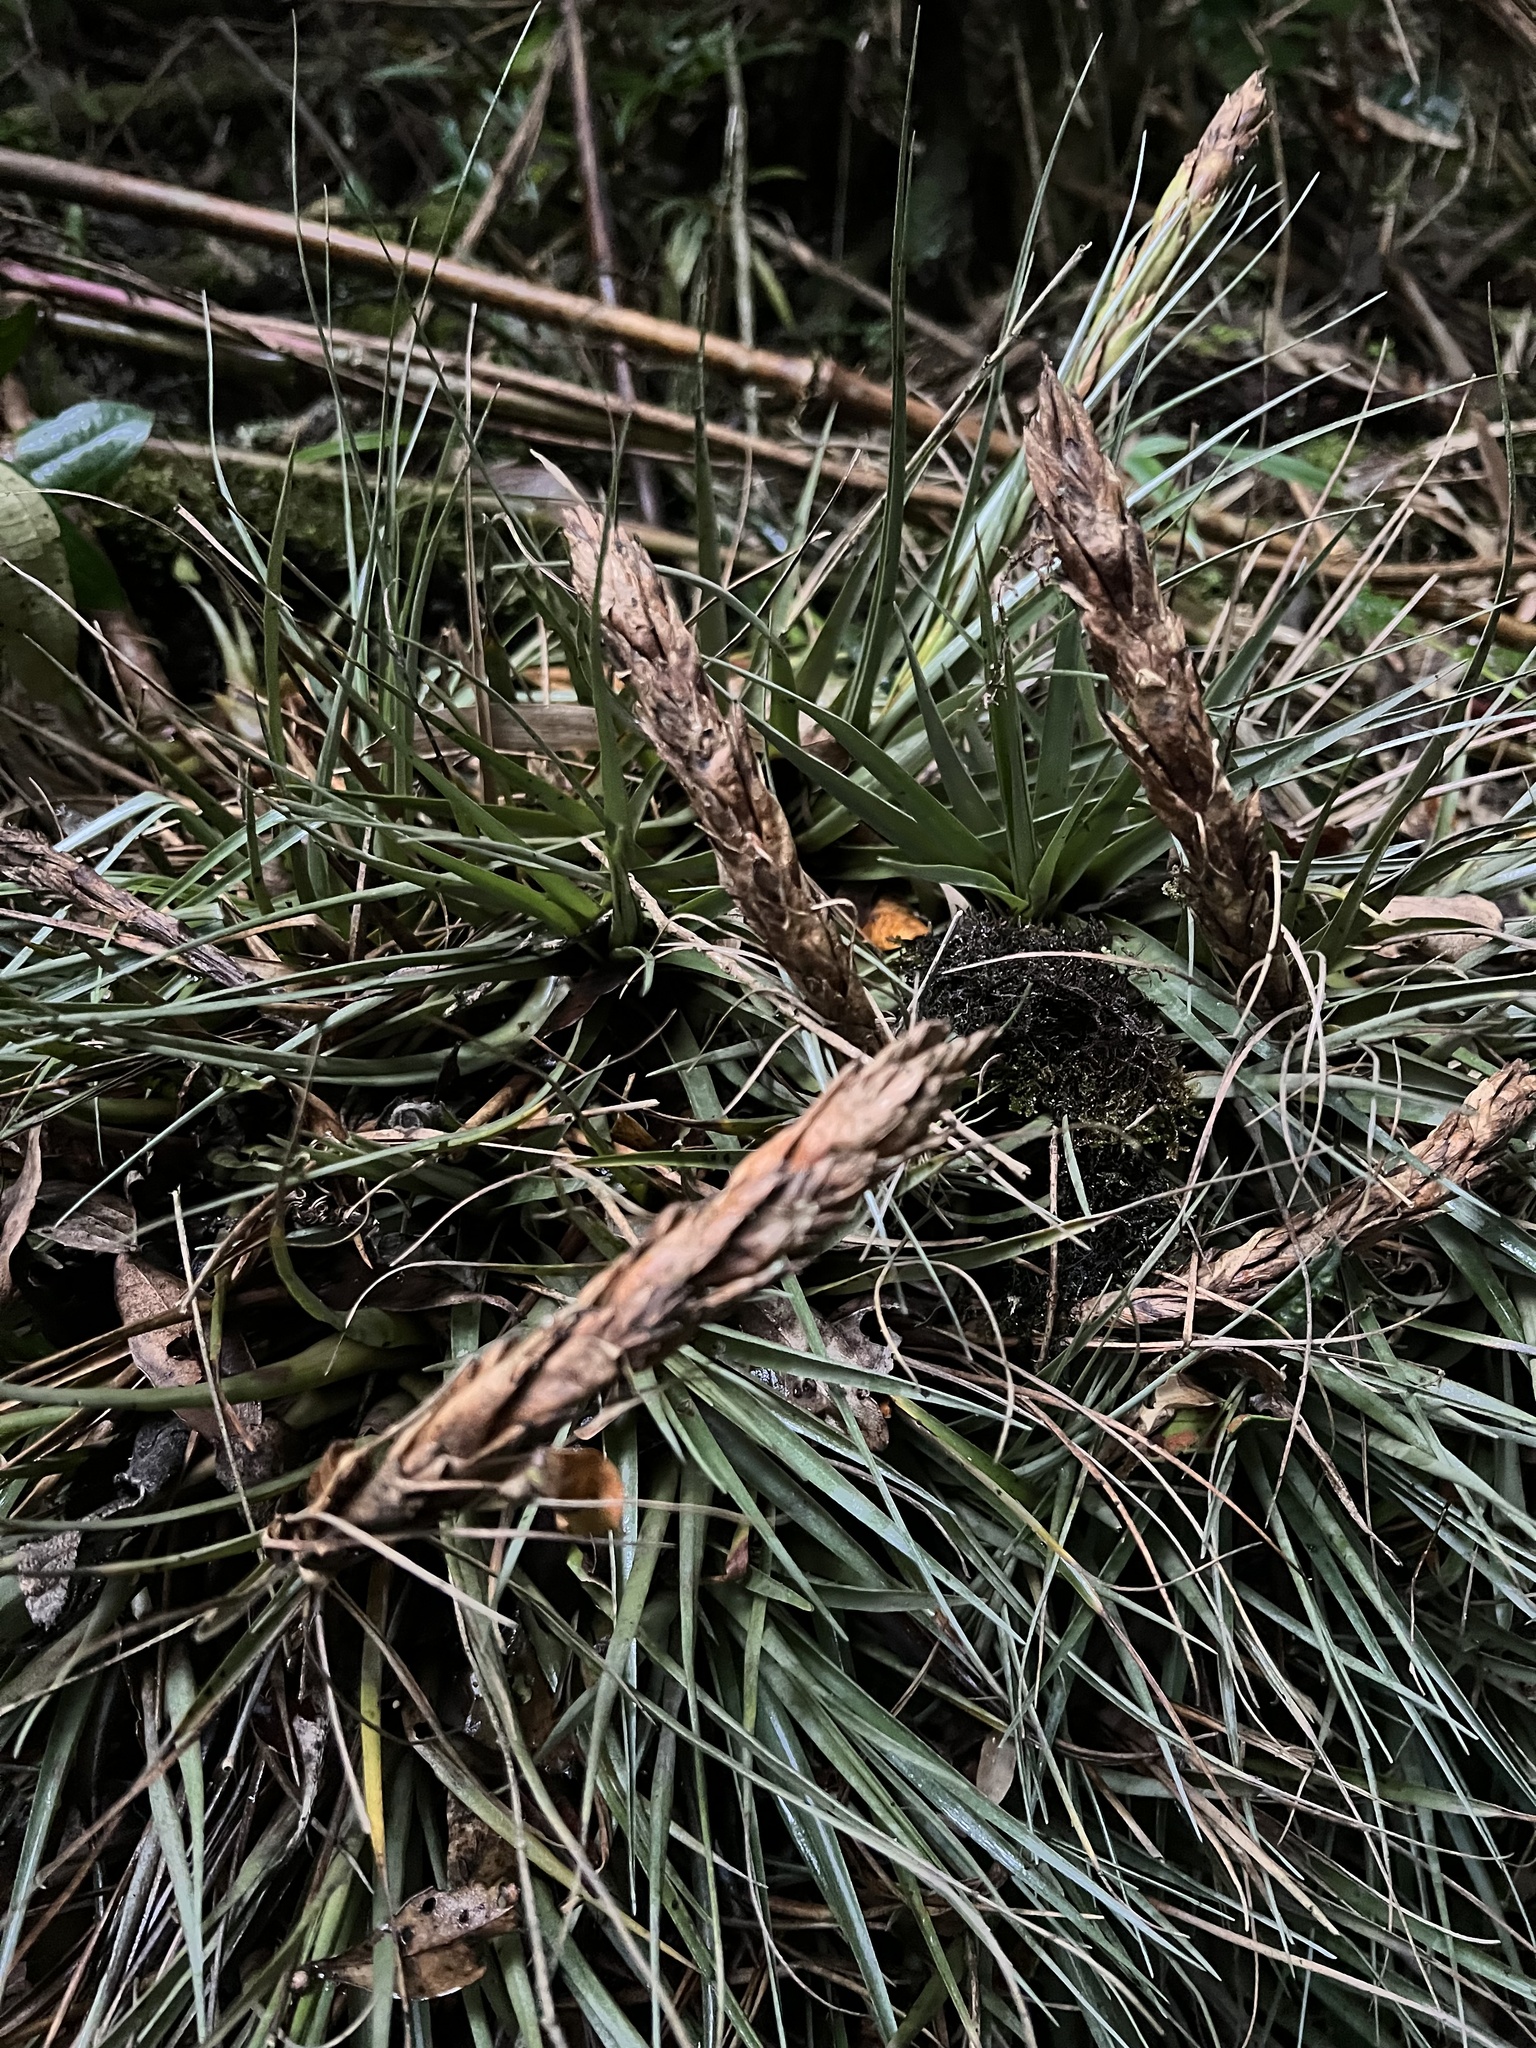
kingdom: Plantae
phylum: Tracheophyta
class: Liliopsida
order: Poales
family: Bromeliaceae
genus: Tillandsia
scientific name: Tillandsia fragrans
